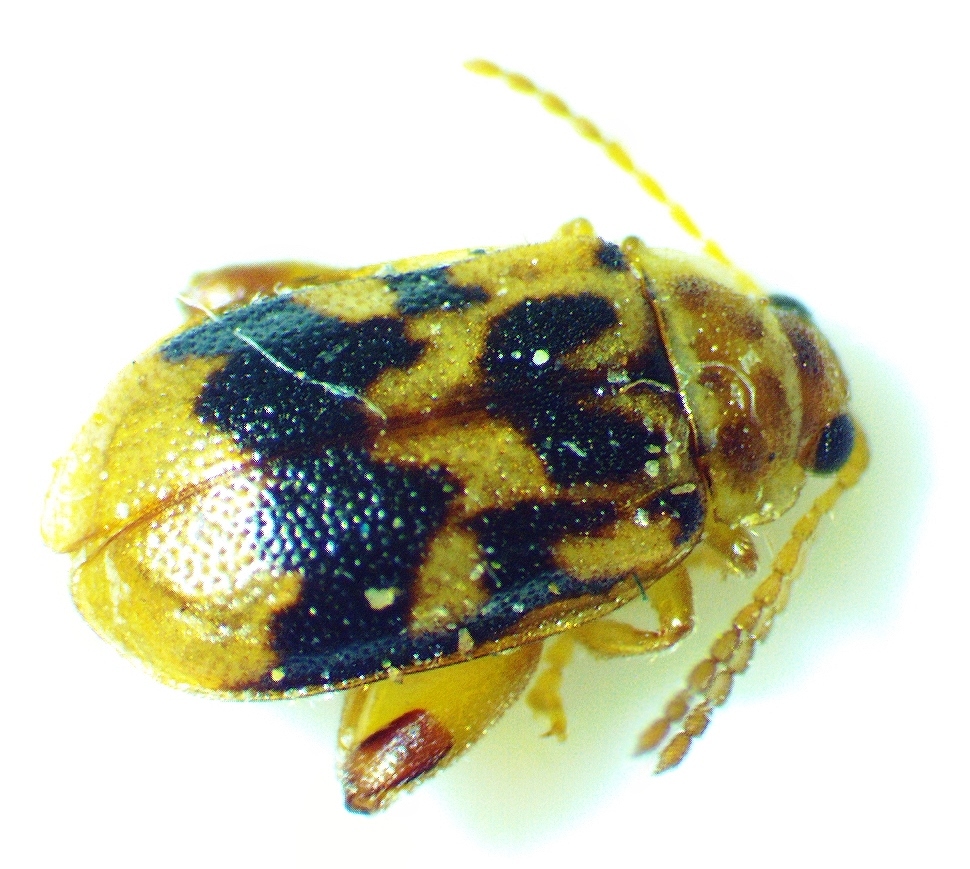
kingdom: Animalia
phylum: Arthropoda
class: Insecta
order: Coleoptera
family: Chrysomelidae
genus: Capraita
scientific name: Capraita sexmaculata
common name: Charlie brown flea beetle
